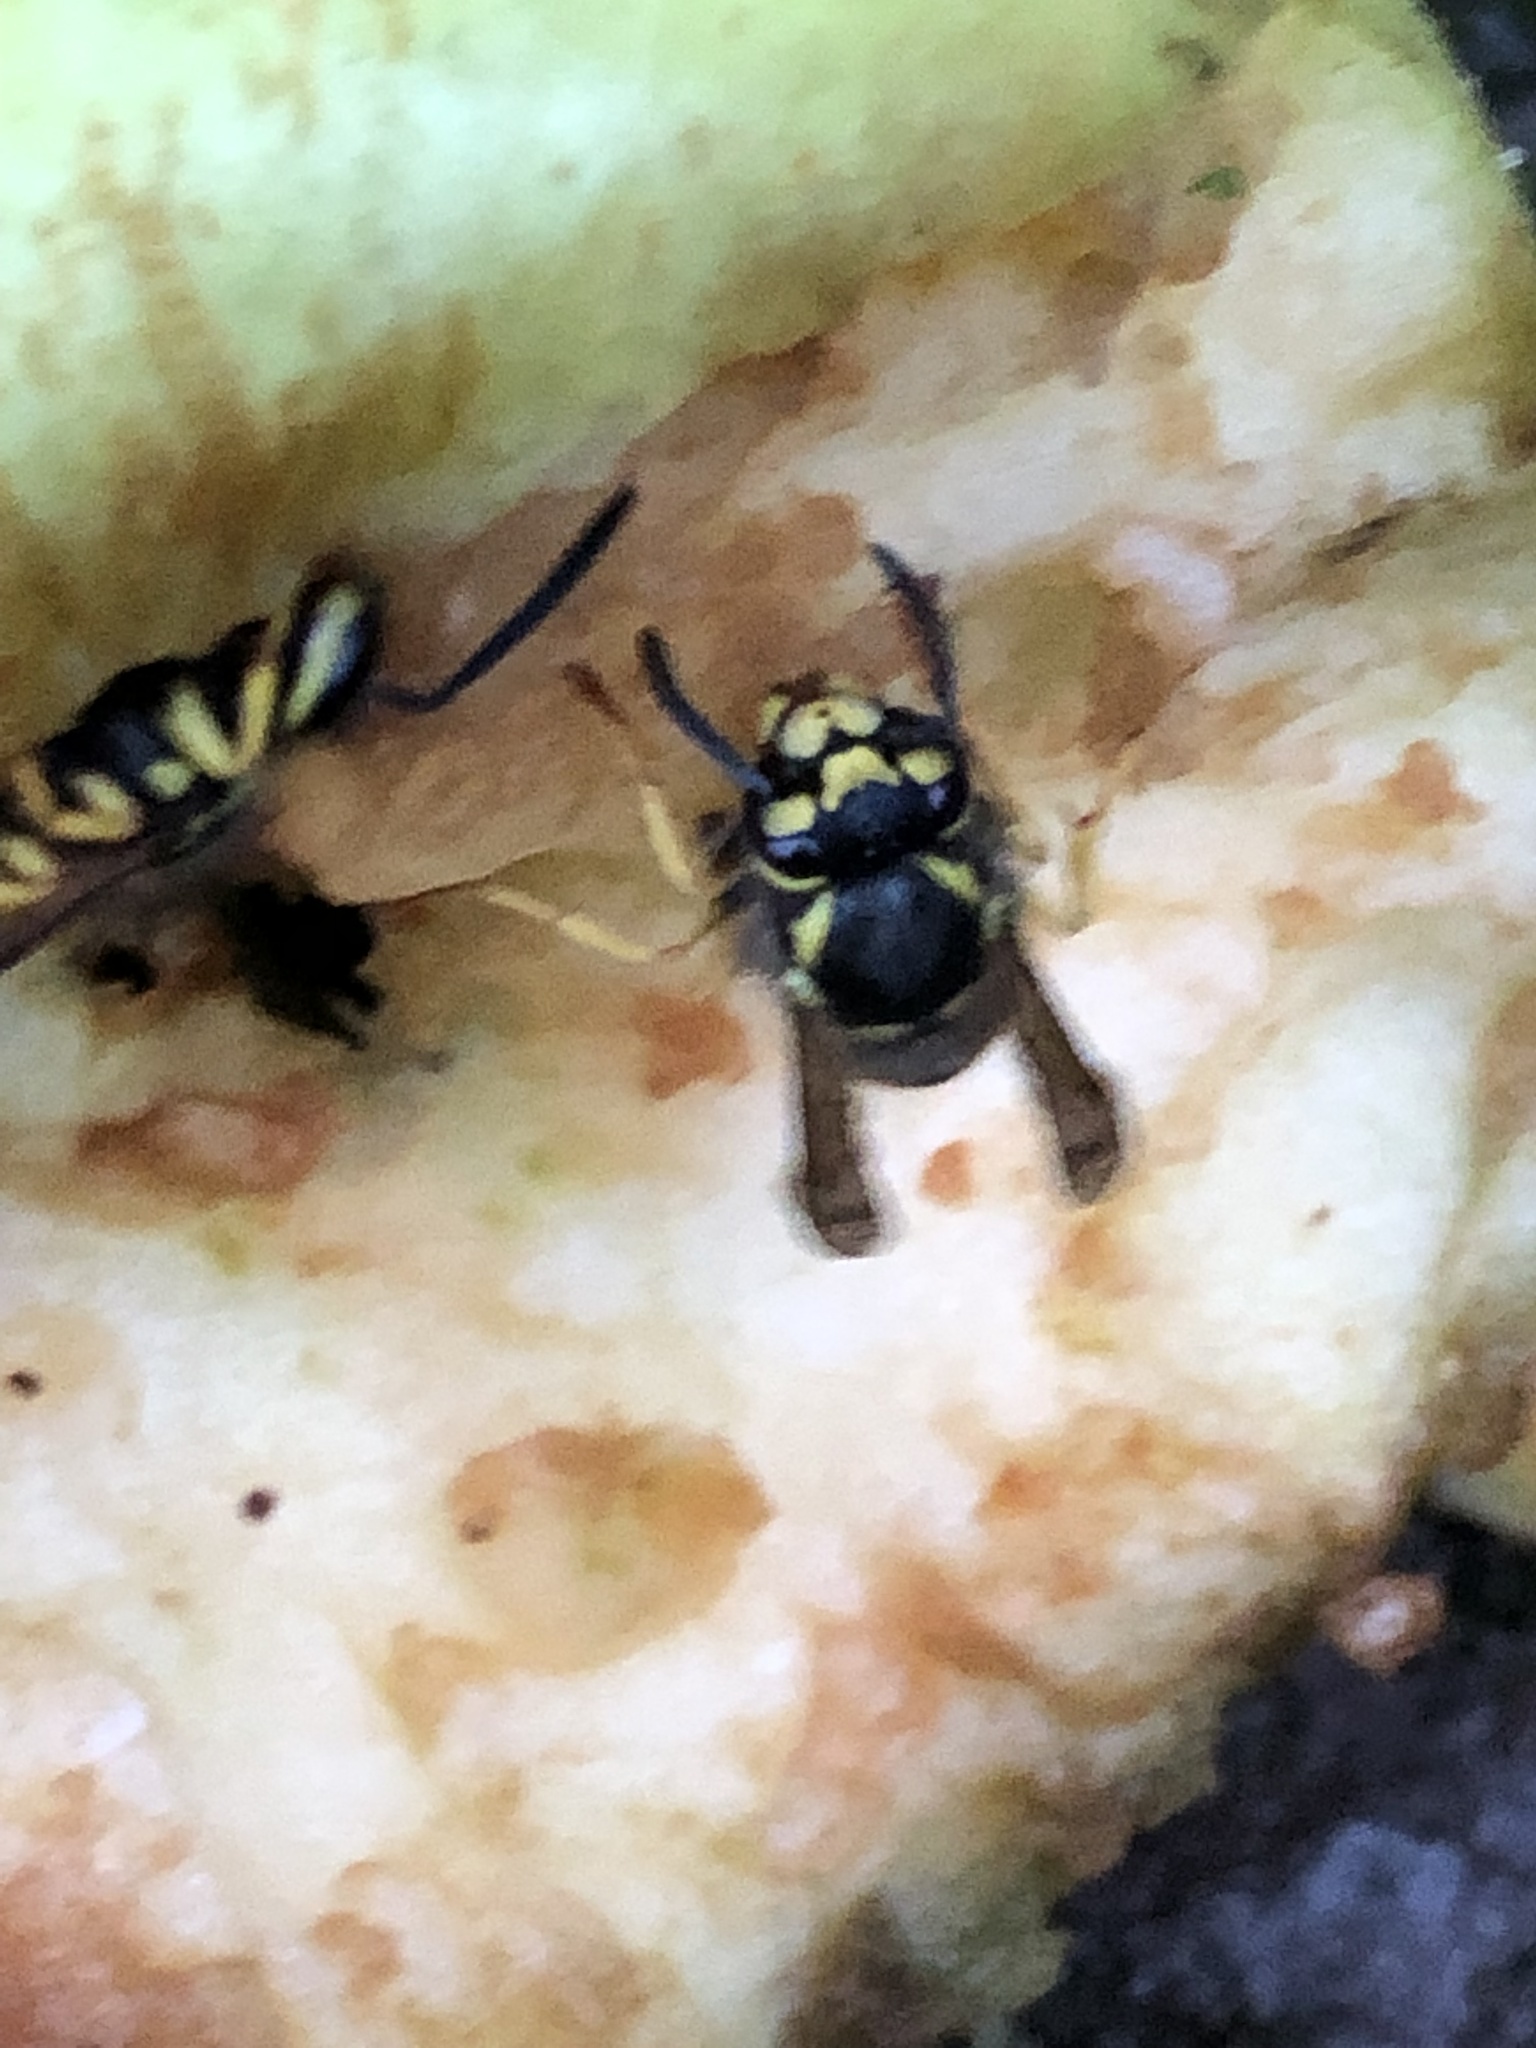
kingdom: Animalia
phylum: Arthropoda
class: Insecta
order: Hymenoptera
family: Vespidae
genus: Vespula
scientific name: Vespula
